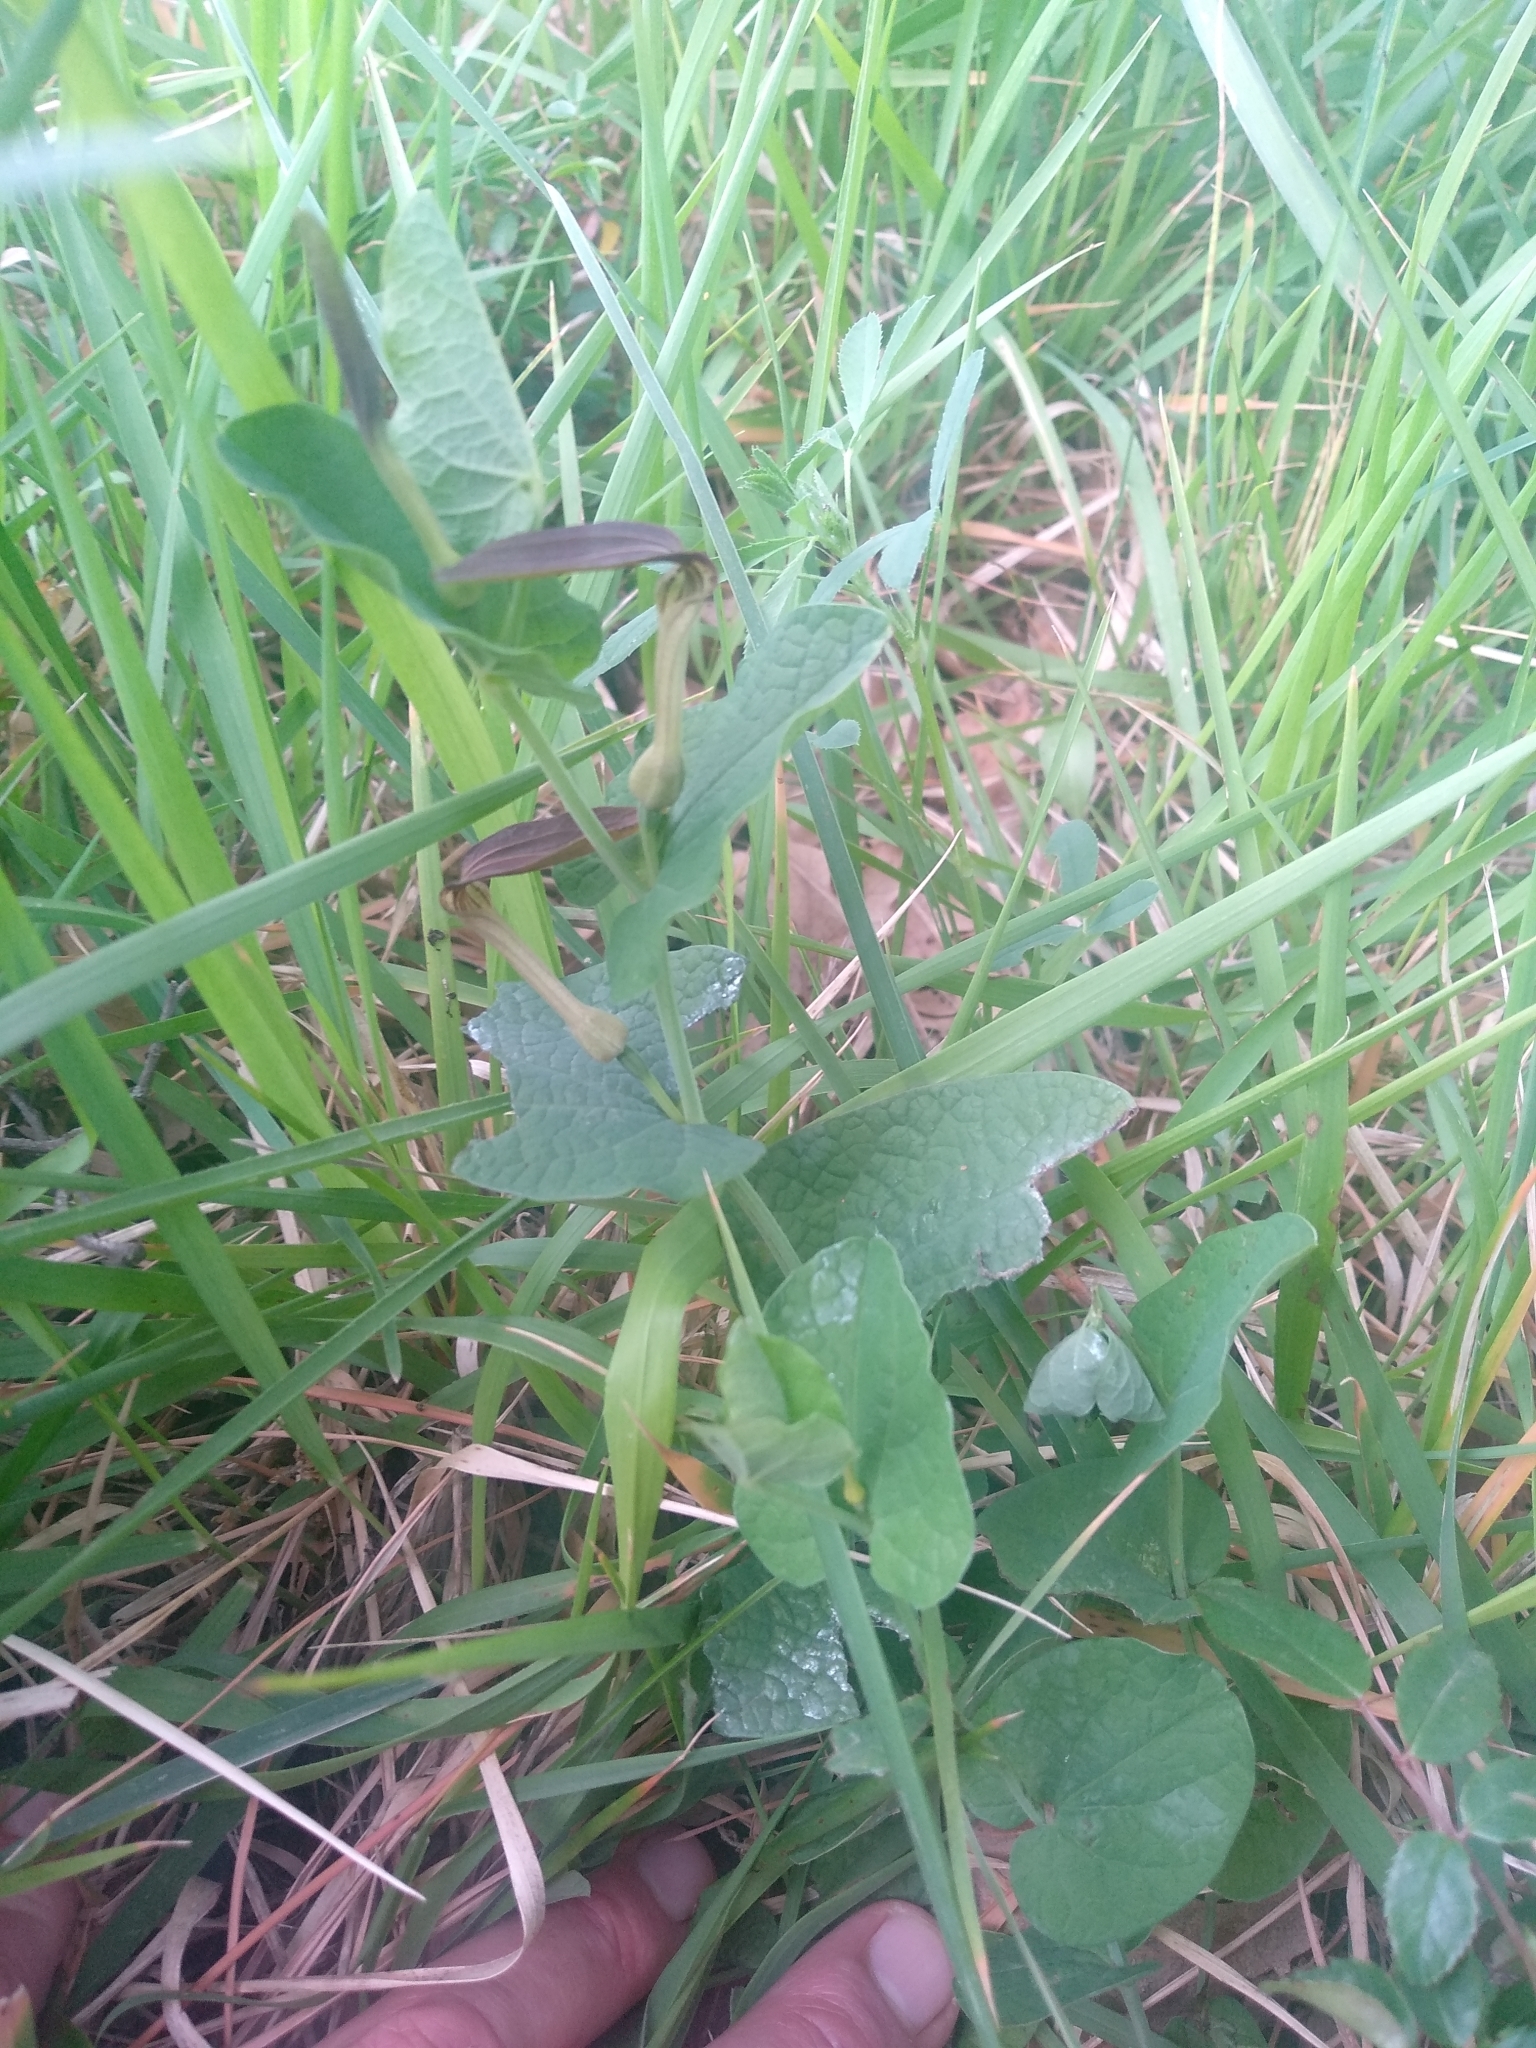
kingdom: Plantae
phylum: Tracheophyta
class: Magnoliopsida
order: Piperales
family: Aristolochiaceae
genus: Aristolochia
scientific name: Aristolochia rotunda
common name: Smearwort
